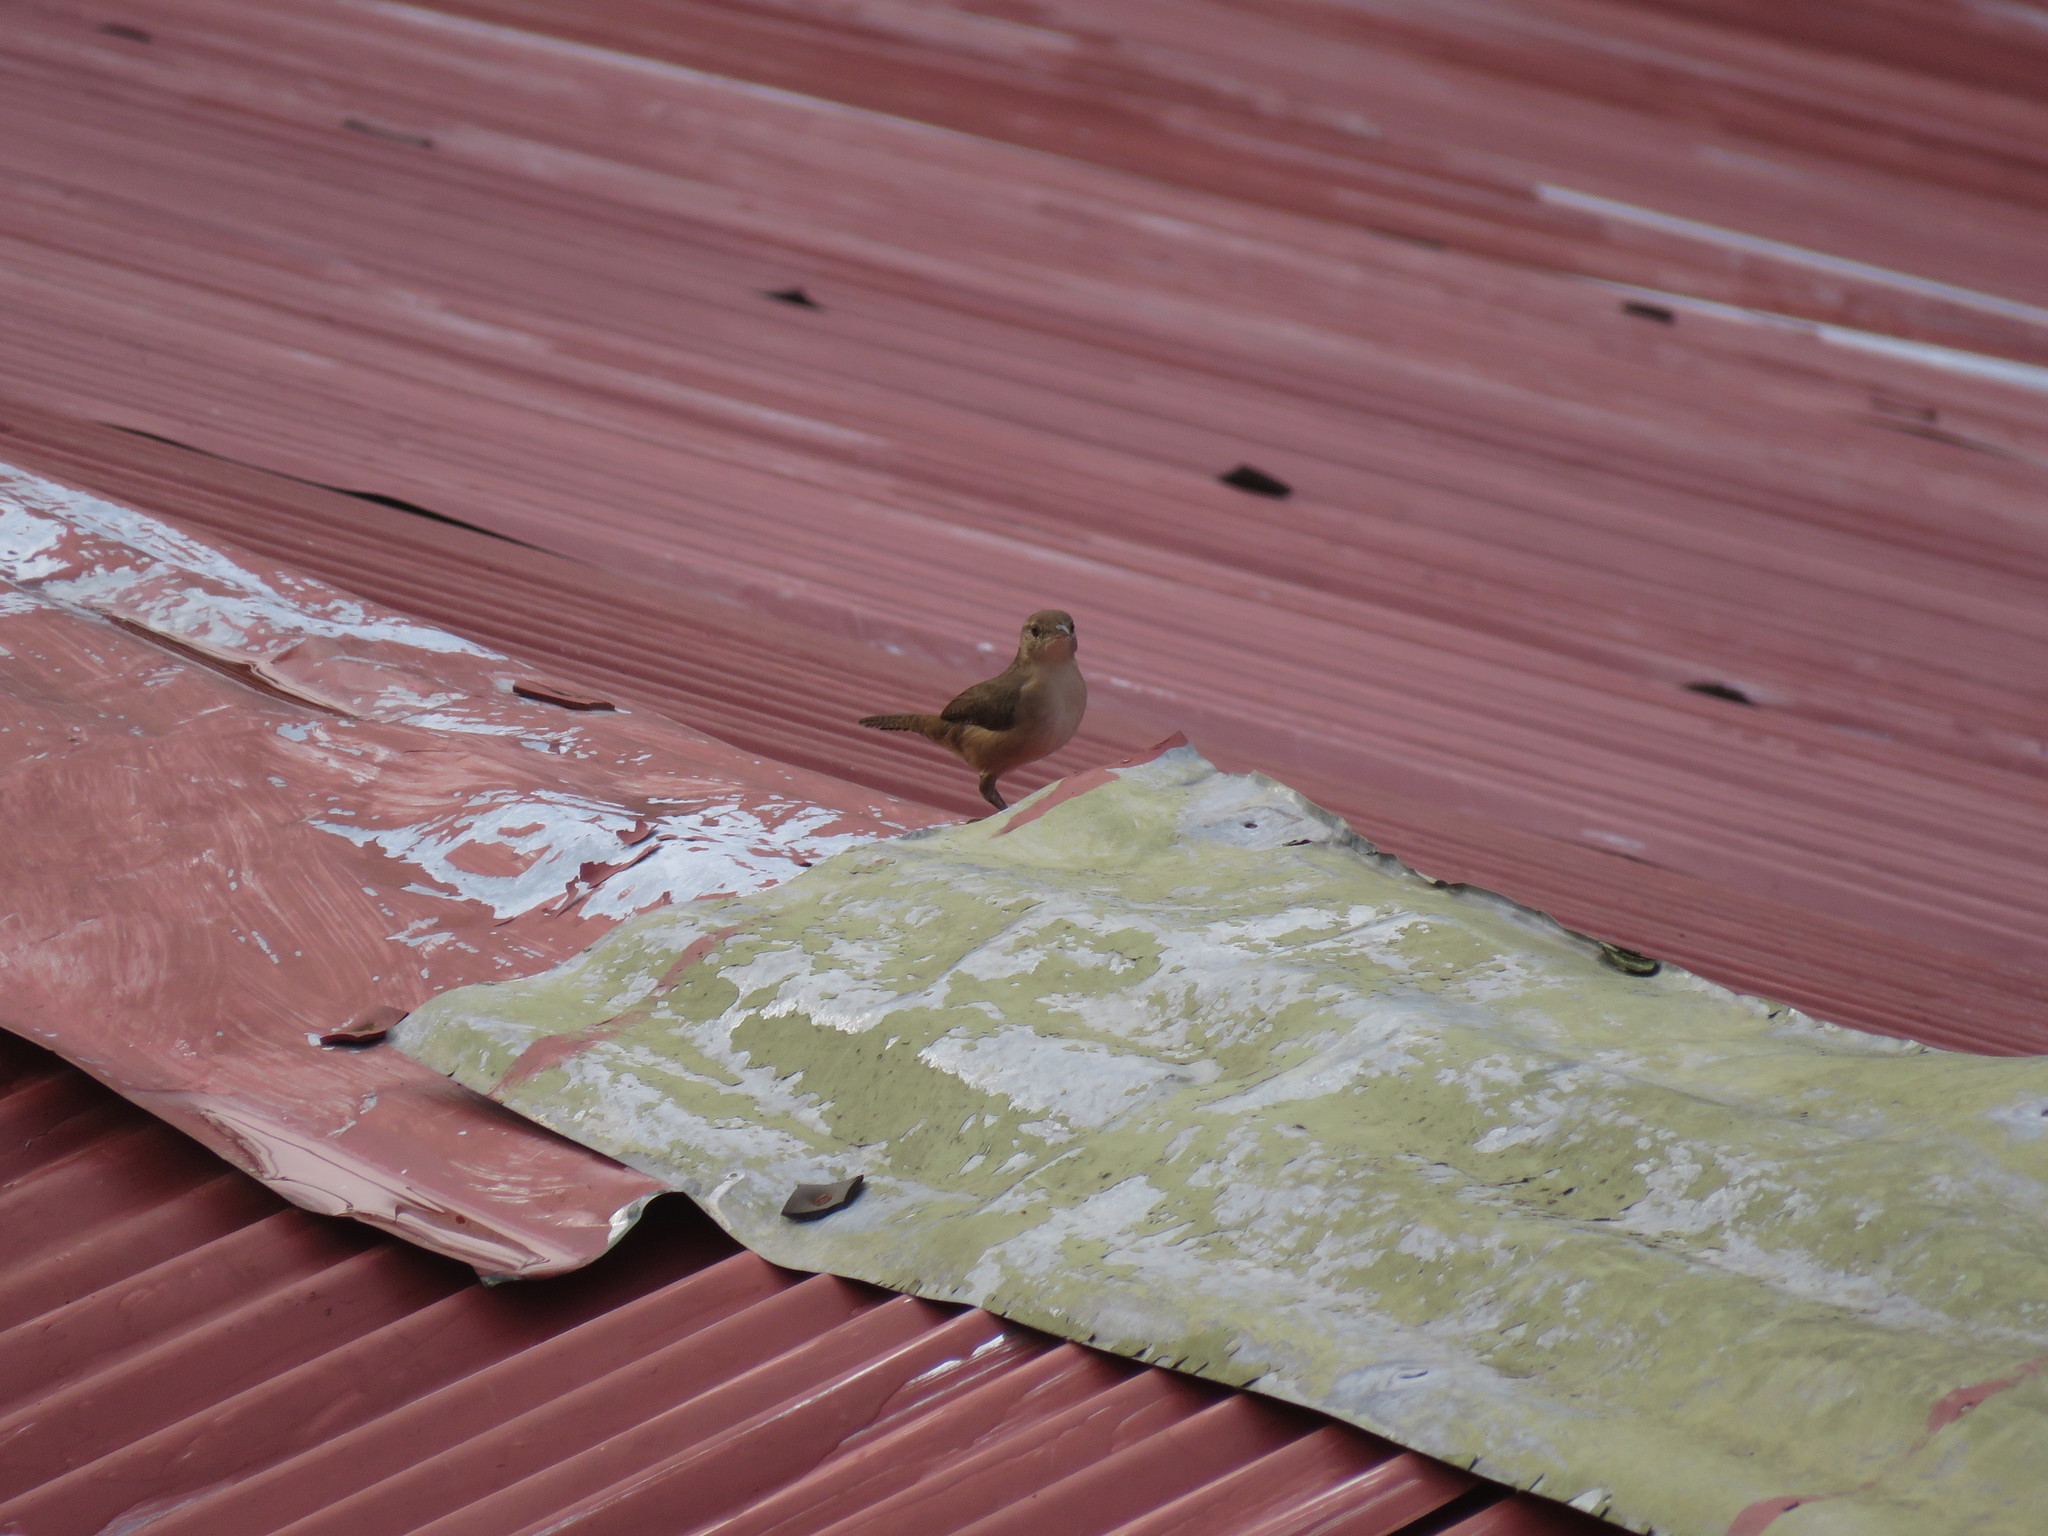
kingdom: Animalia
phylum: Chordata
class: Aves
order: Passeriformes
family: Troglodytidae
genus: Troglodytes
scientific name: Troglodytes aedon
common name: House wren
